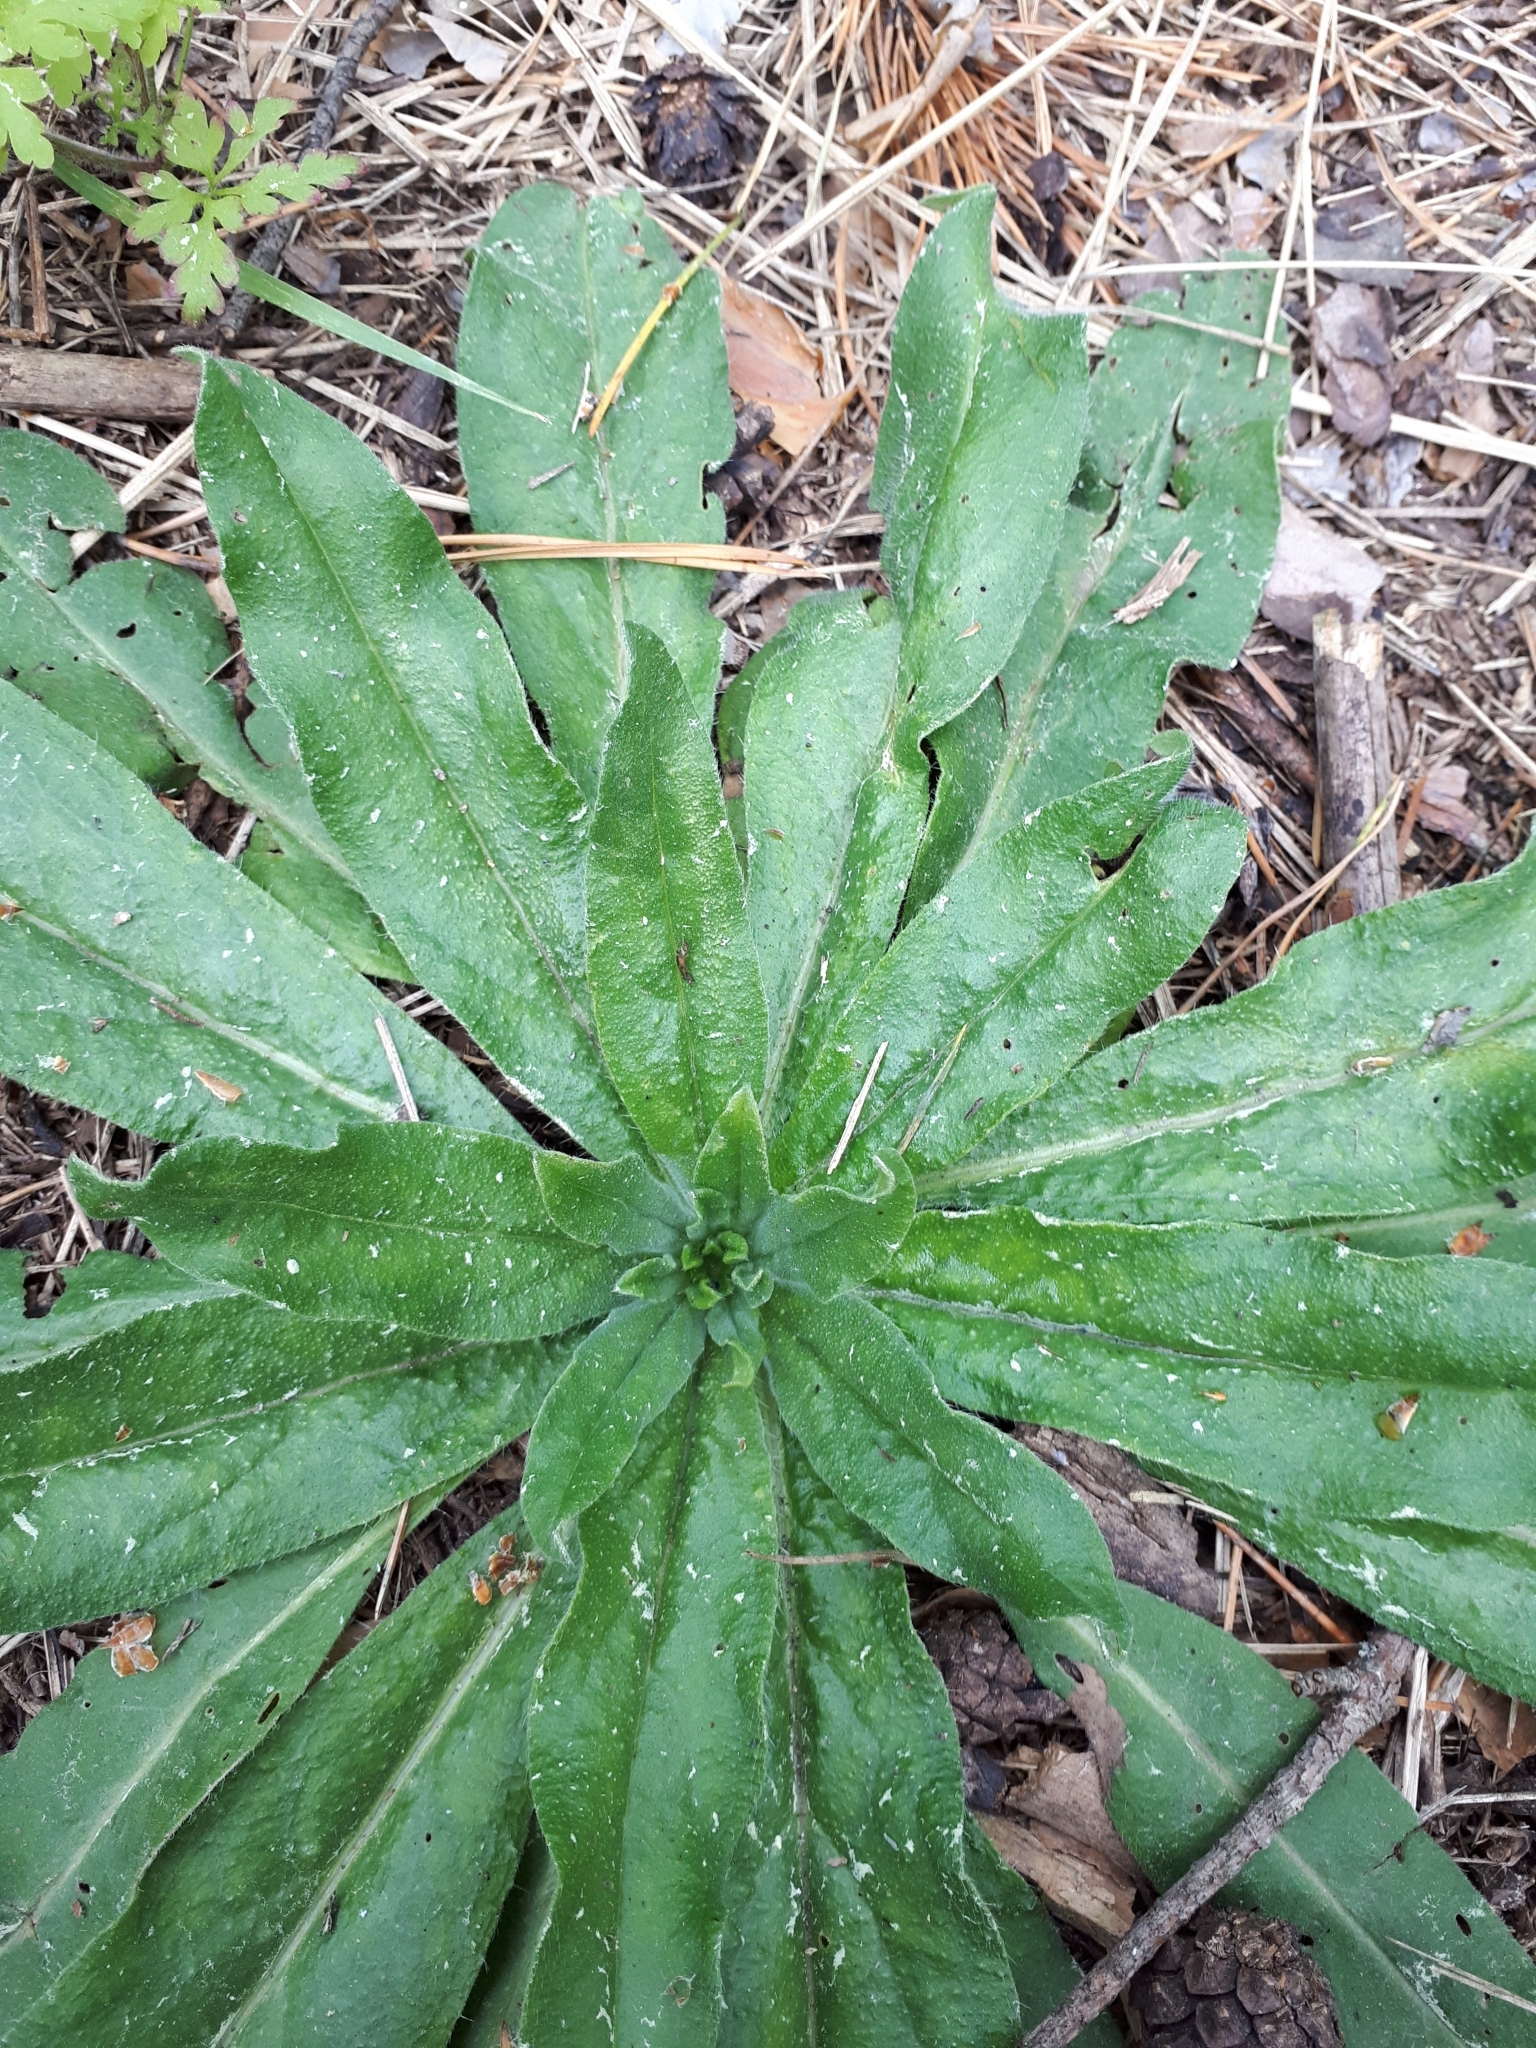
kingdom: Plantae
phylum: Tracheophyta
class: Magnoliopsida
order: Boraginales
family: Boraginaceae
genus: Echium
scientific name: Echium vulgare
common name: Common viper's bugloss
